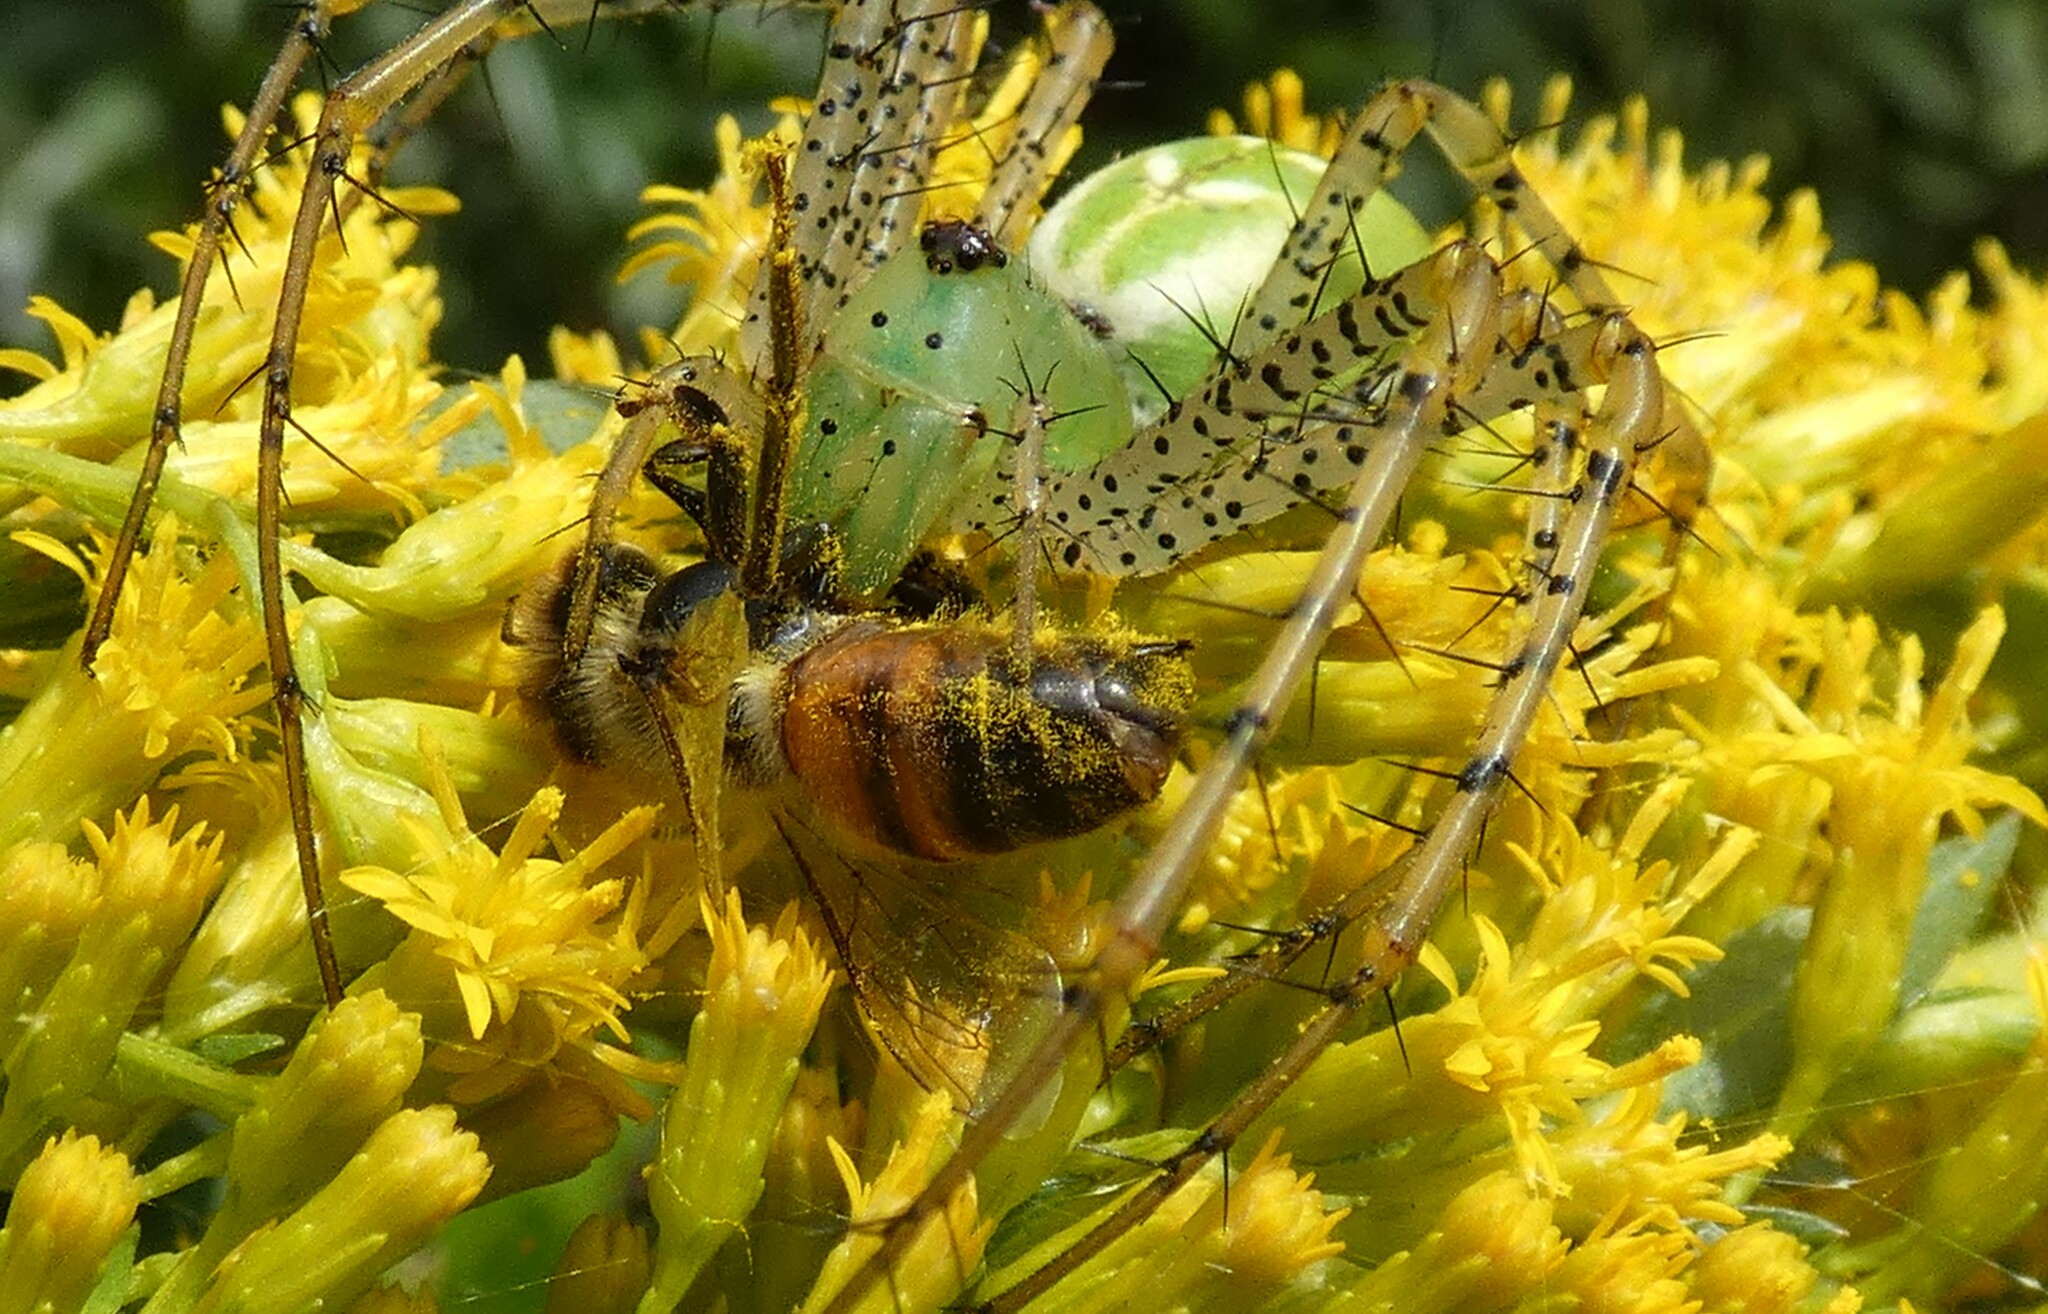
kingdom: Animalia
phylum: Arthropoda
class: Insecta
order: Hymenoptera
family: Apidae
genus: Apis
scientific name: Apis mellifera
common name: Honey bee
